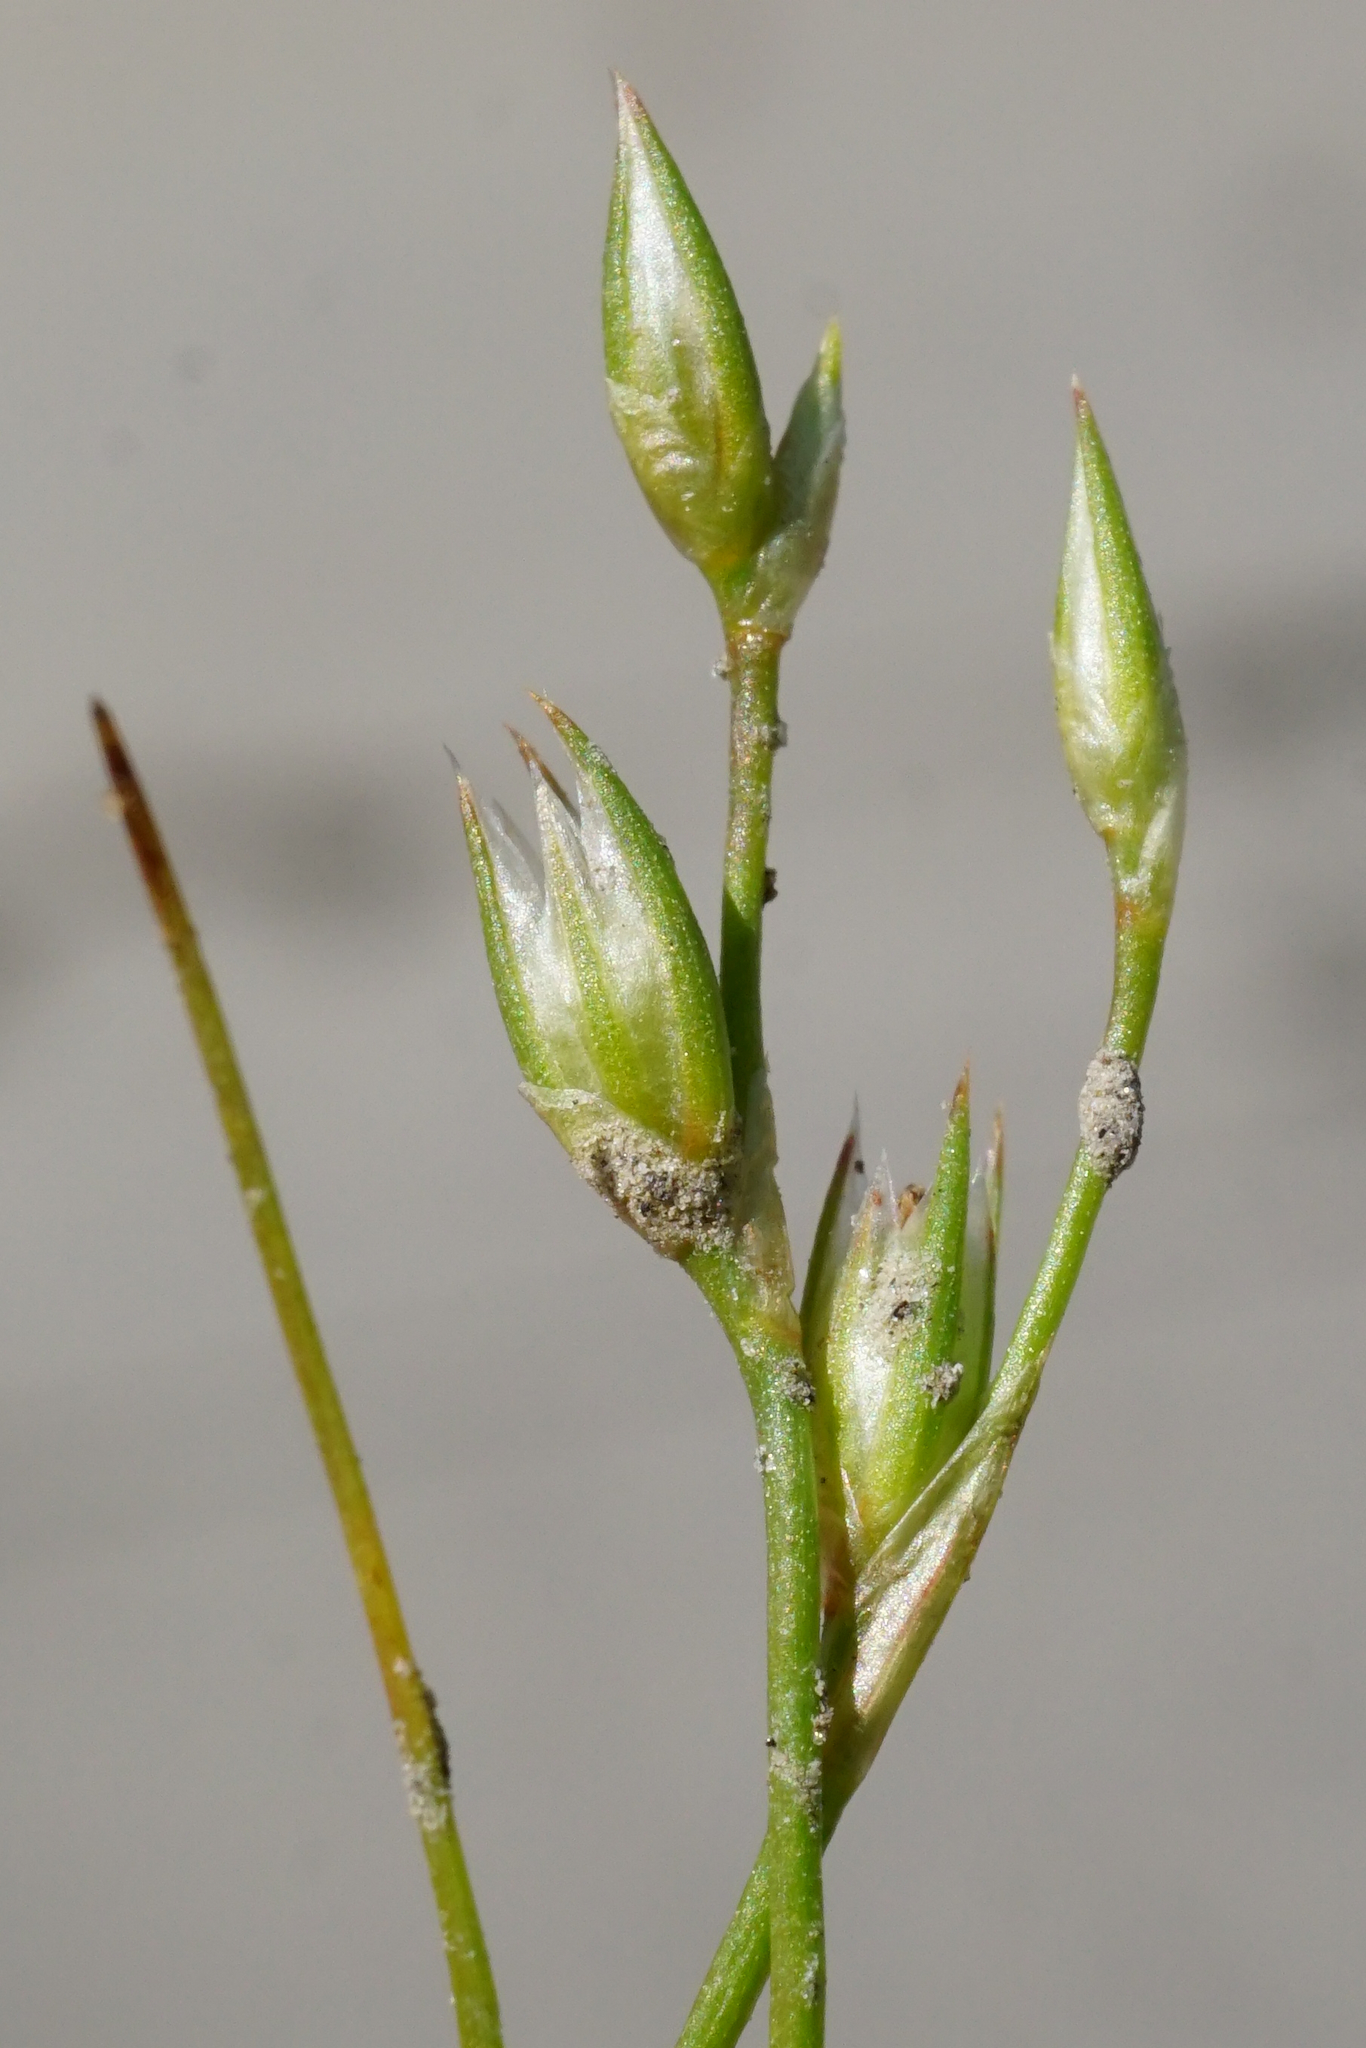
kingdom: Plantae
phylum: Tracheophyta
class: Liliopsida
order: Poales
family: Juncaceae
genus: Juncus
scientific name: Juncus bufonius
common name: Toad rush
